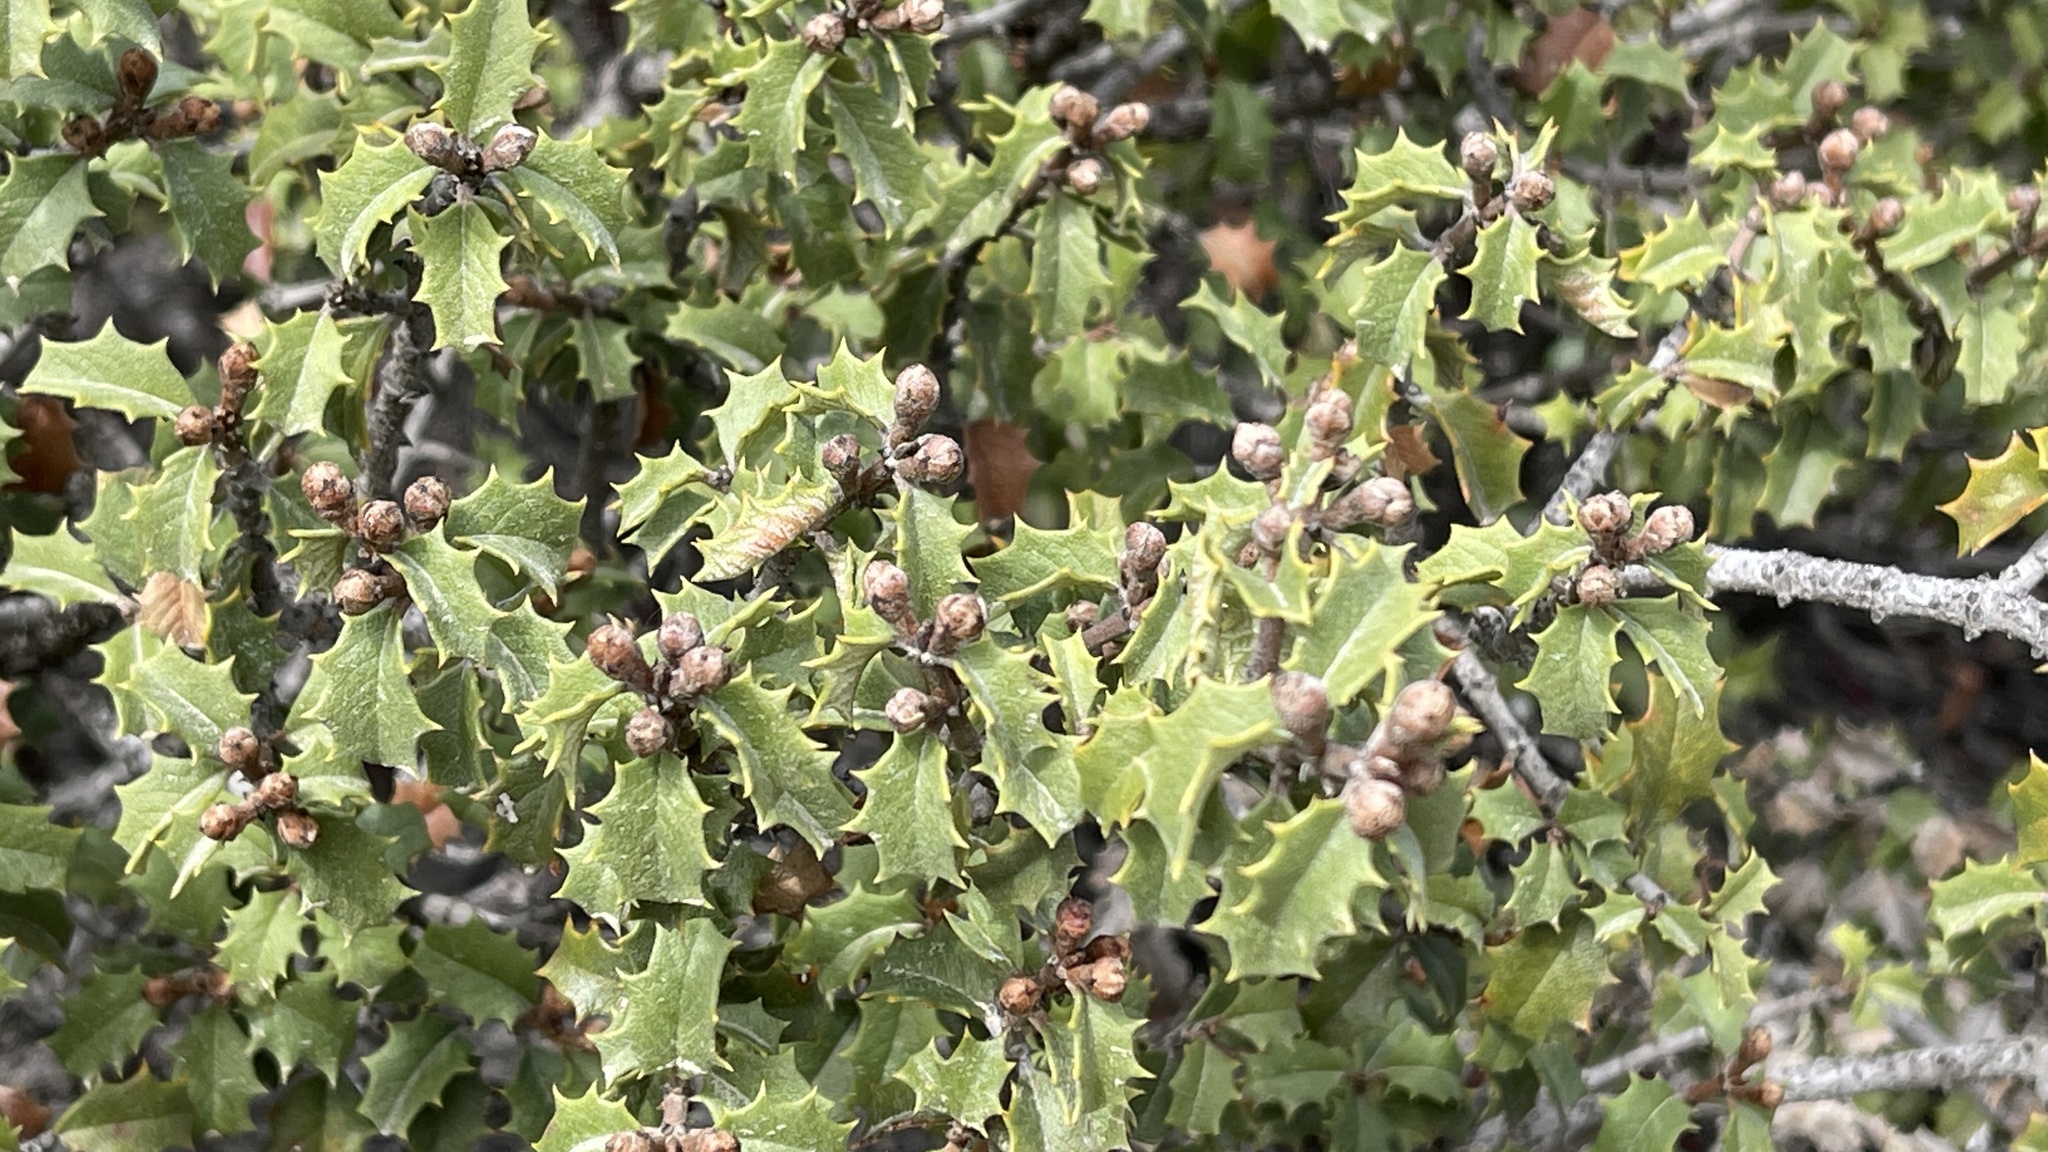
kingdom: Plantae
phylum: Tracheophyta
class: Magnoliopsida
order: Rosales
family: Rhamnaceae
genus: Ceanothus
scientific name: Ceanothus jepsonii
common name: Muskbrush
